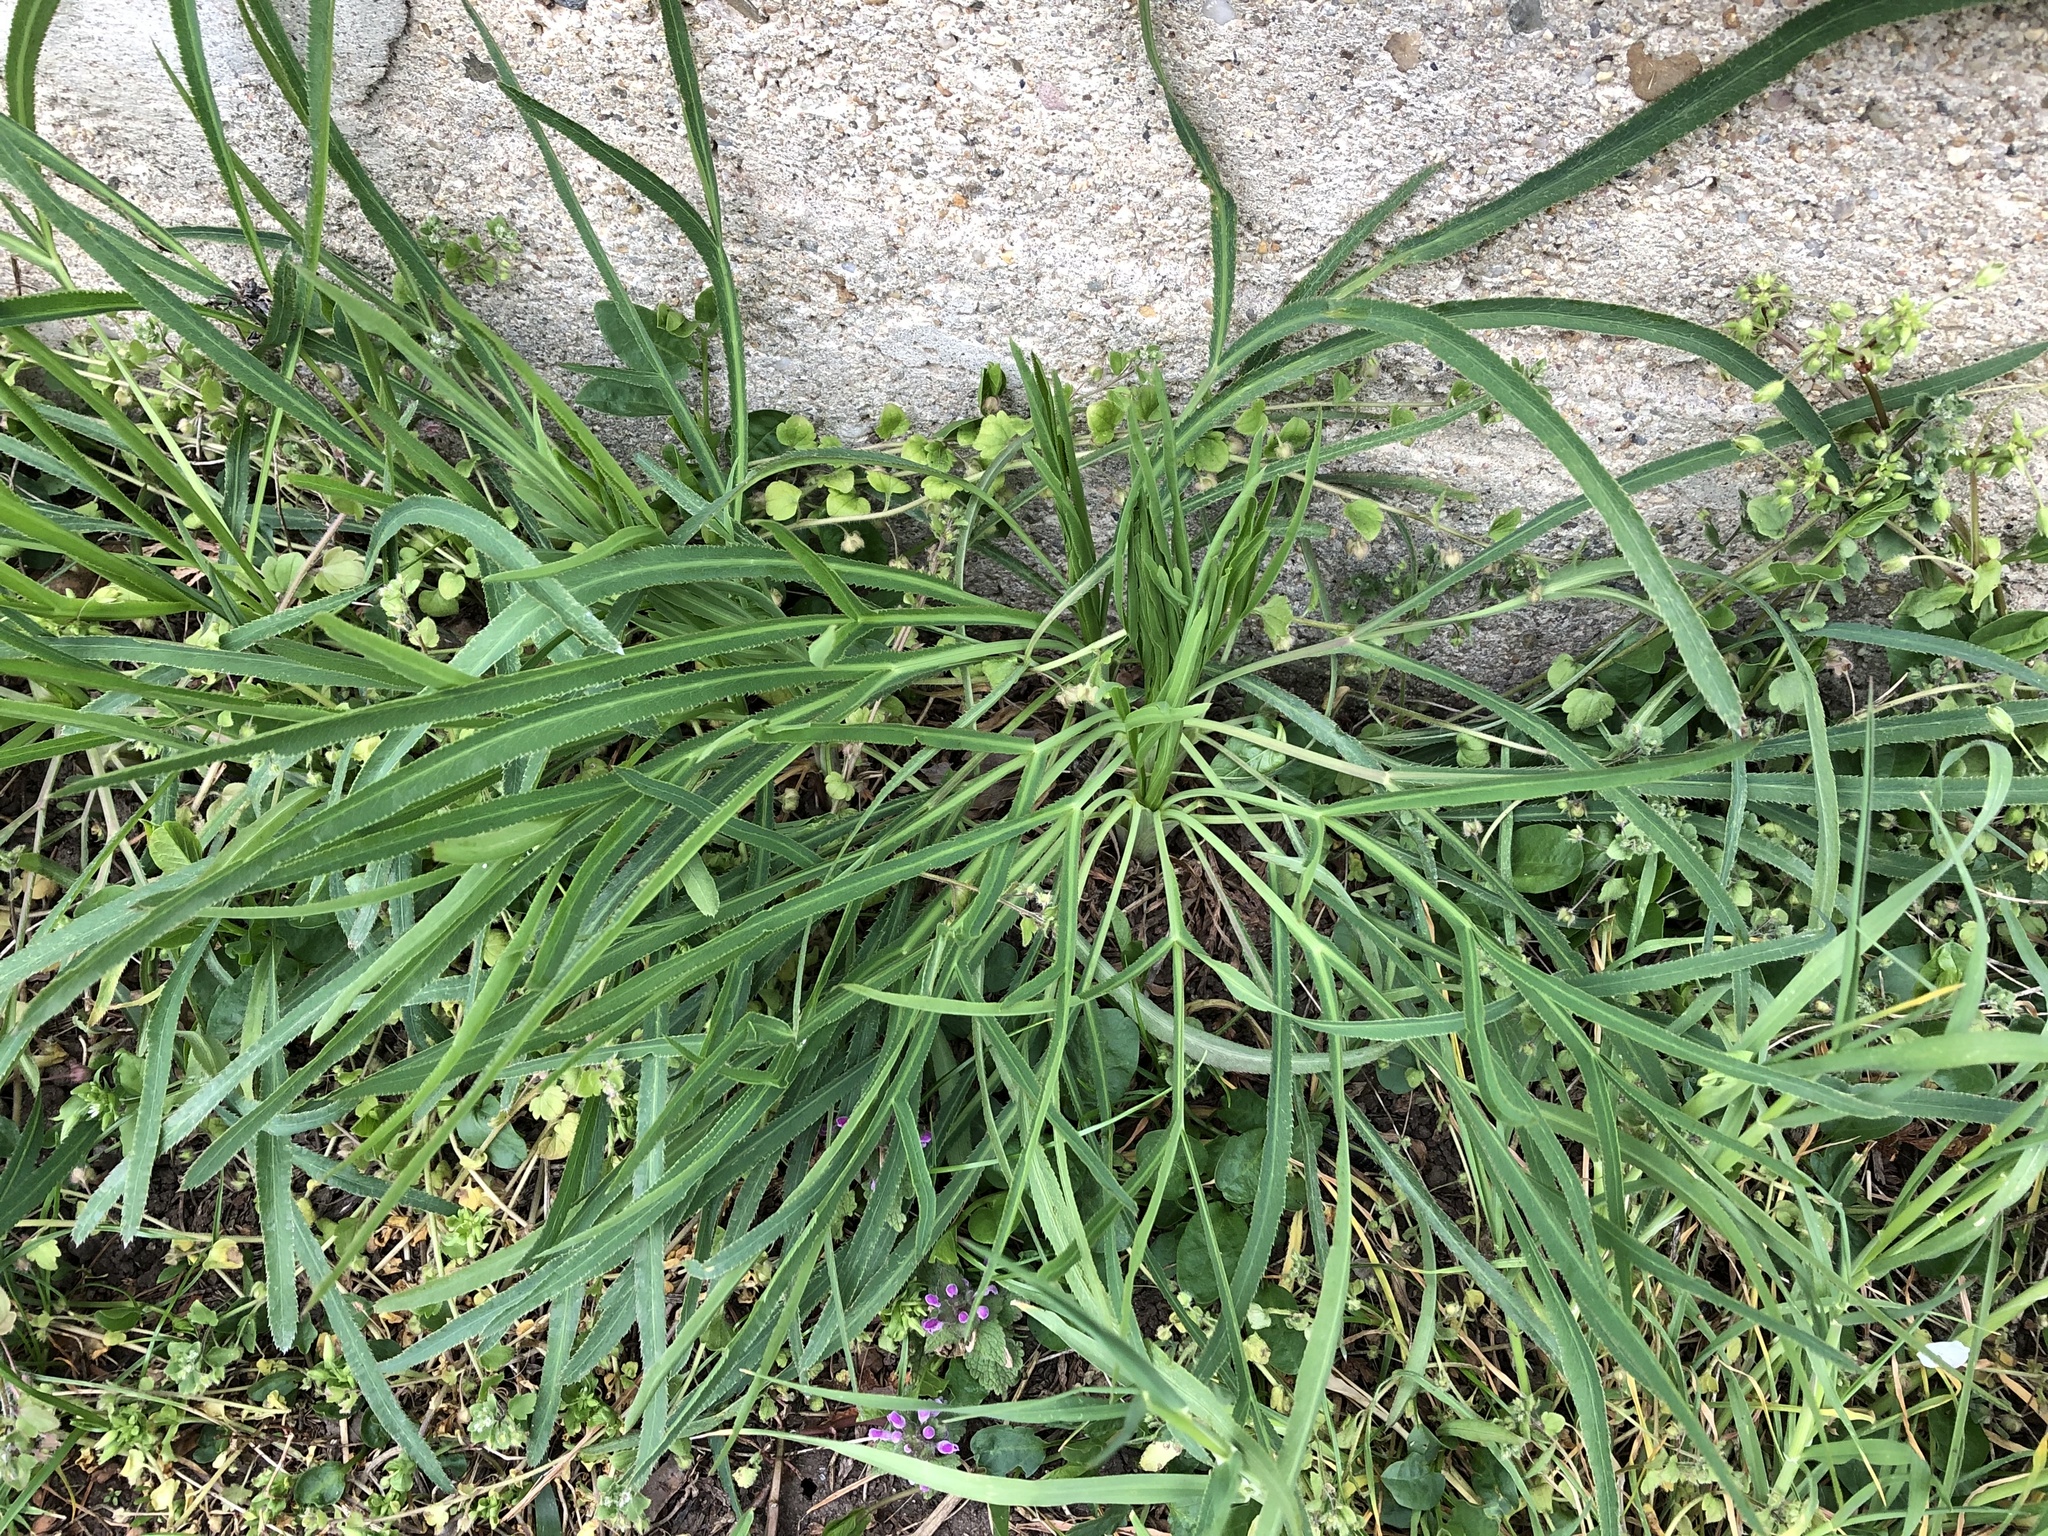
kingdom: Plantae
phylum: Tracheophyta
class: Magnoliopsida
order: Apiales
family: Apiaceae
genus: Falcaria
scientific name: Falcaria vulgaris
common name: Longleaf
